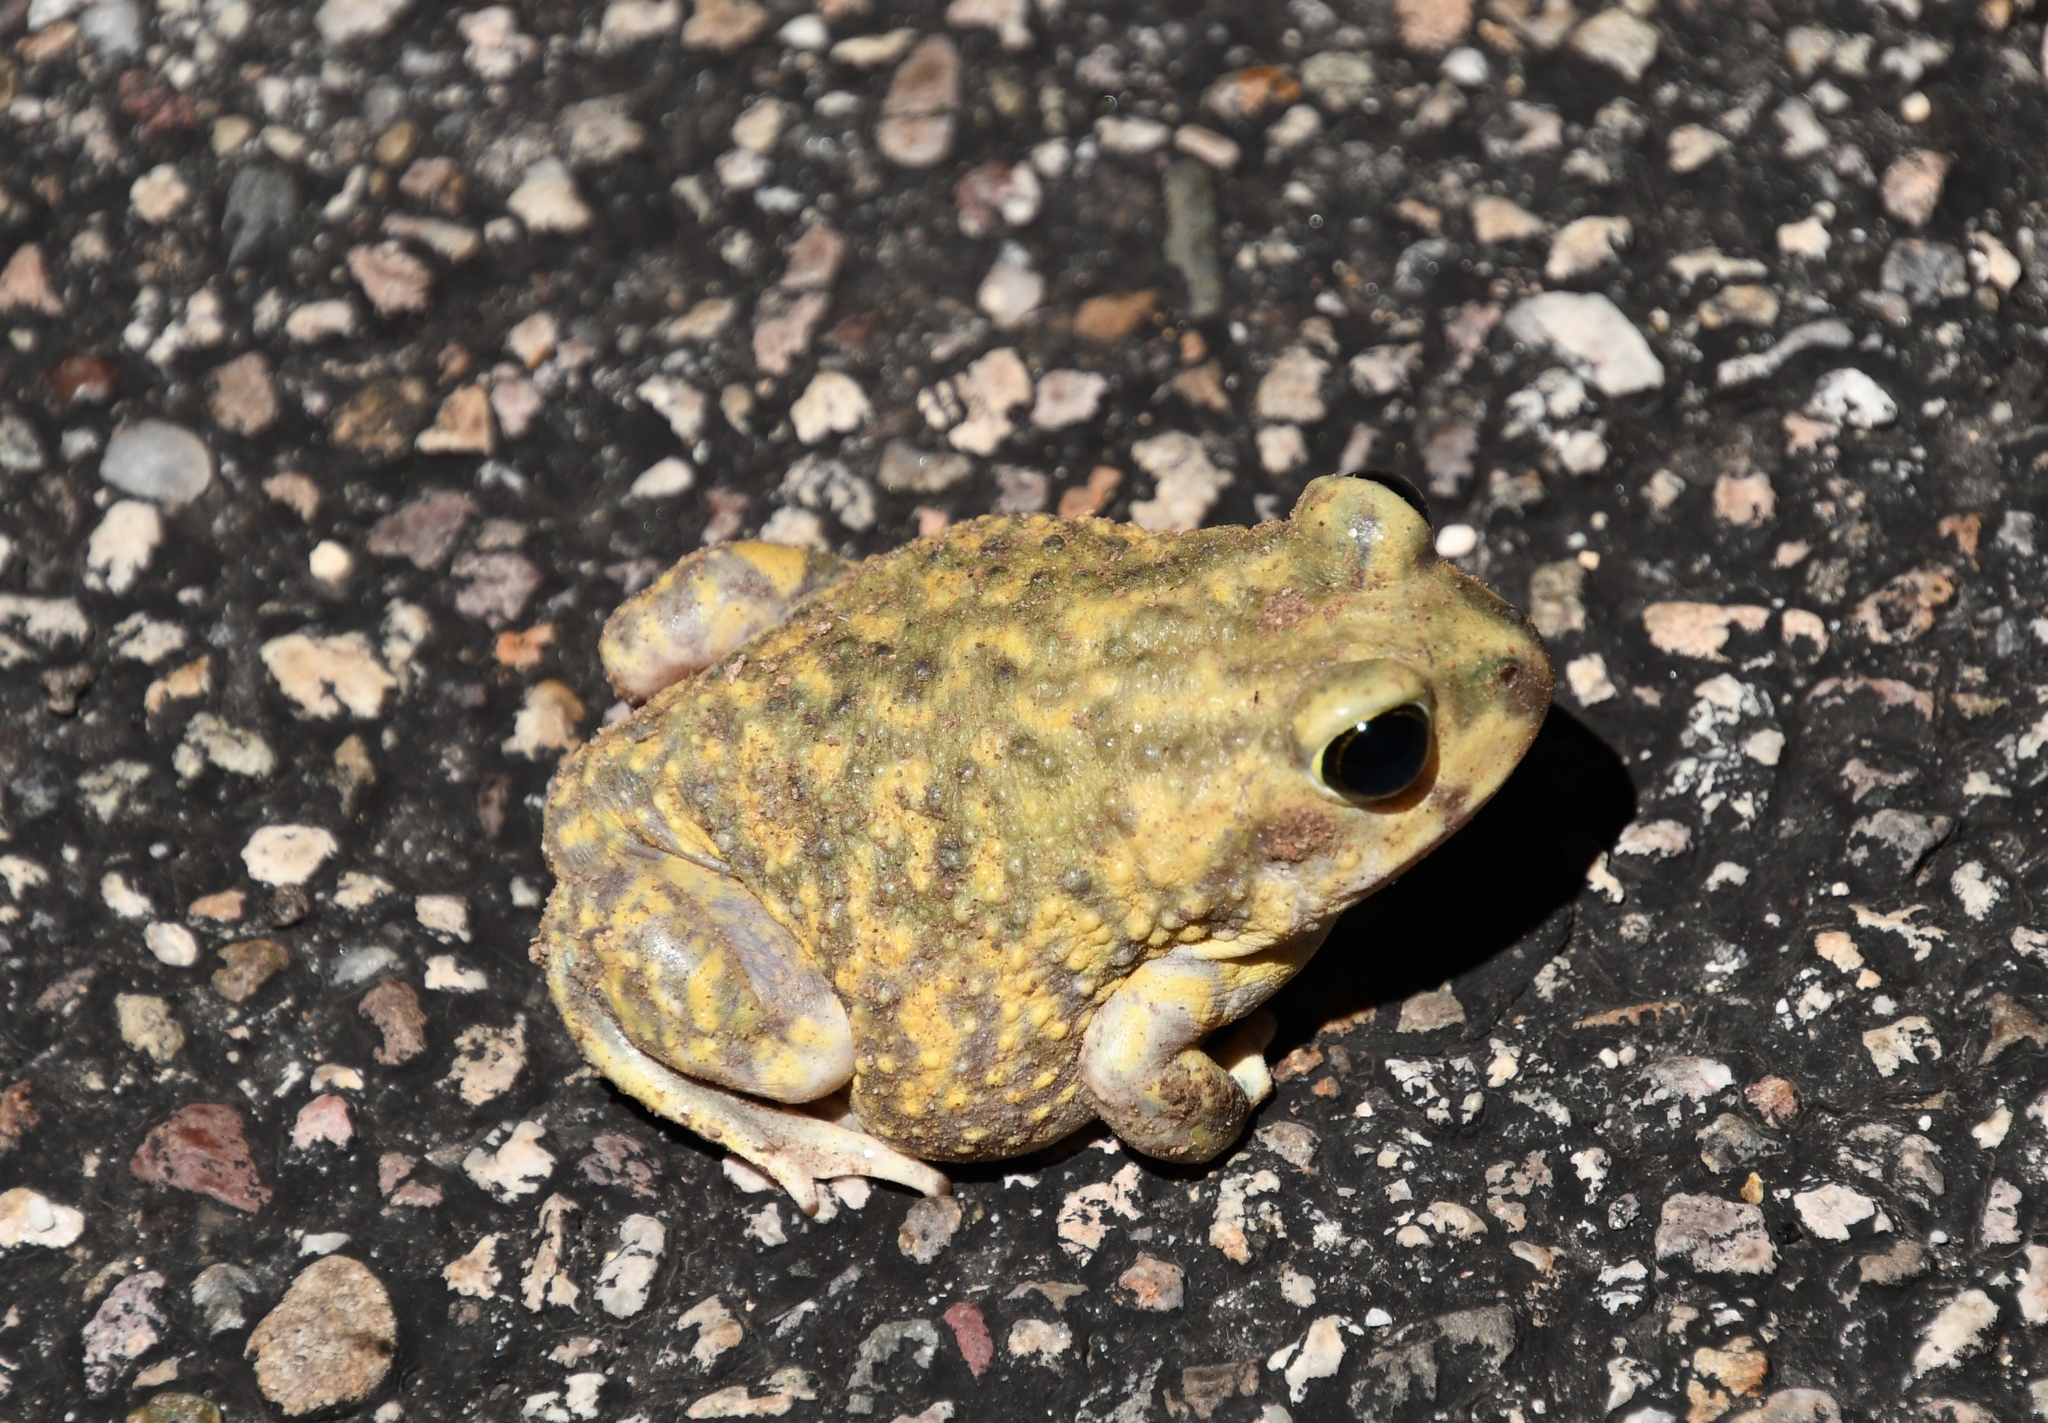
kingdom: Animalia
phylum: Chordata
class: Amphibia
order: Anura
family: Scaphiopodidae
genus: Scaphiopus
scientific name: Scaphiopus couchii
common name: Couch's spadefoot toad
